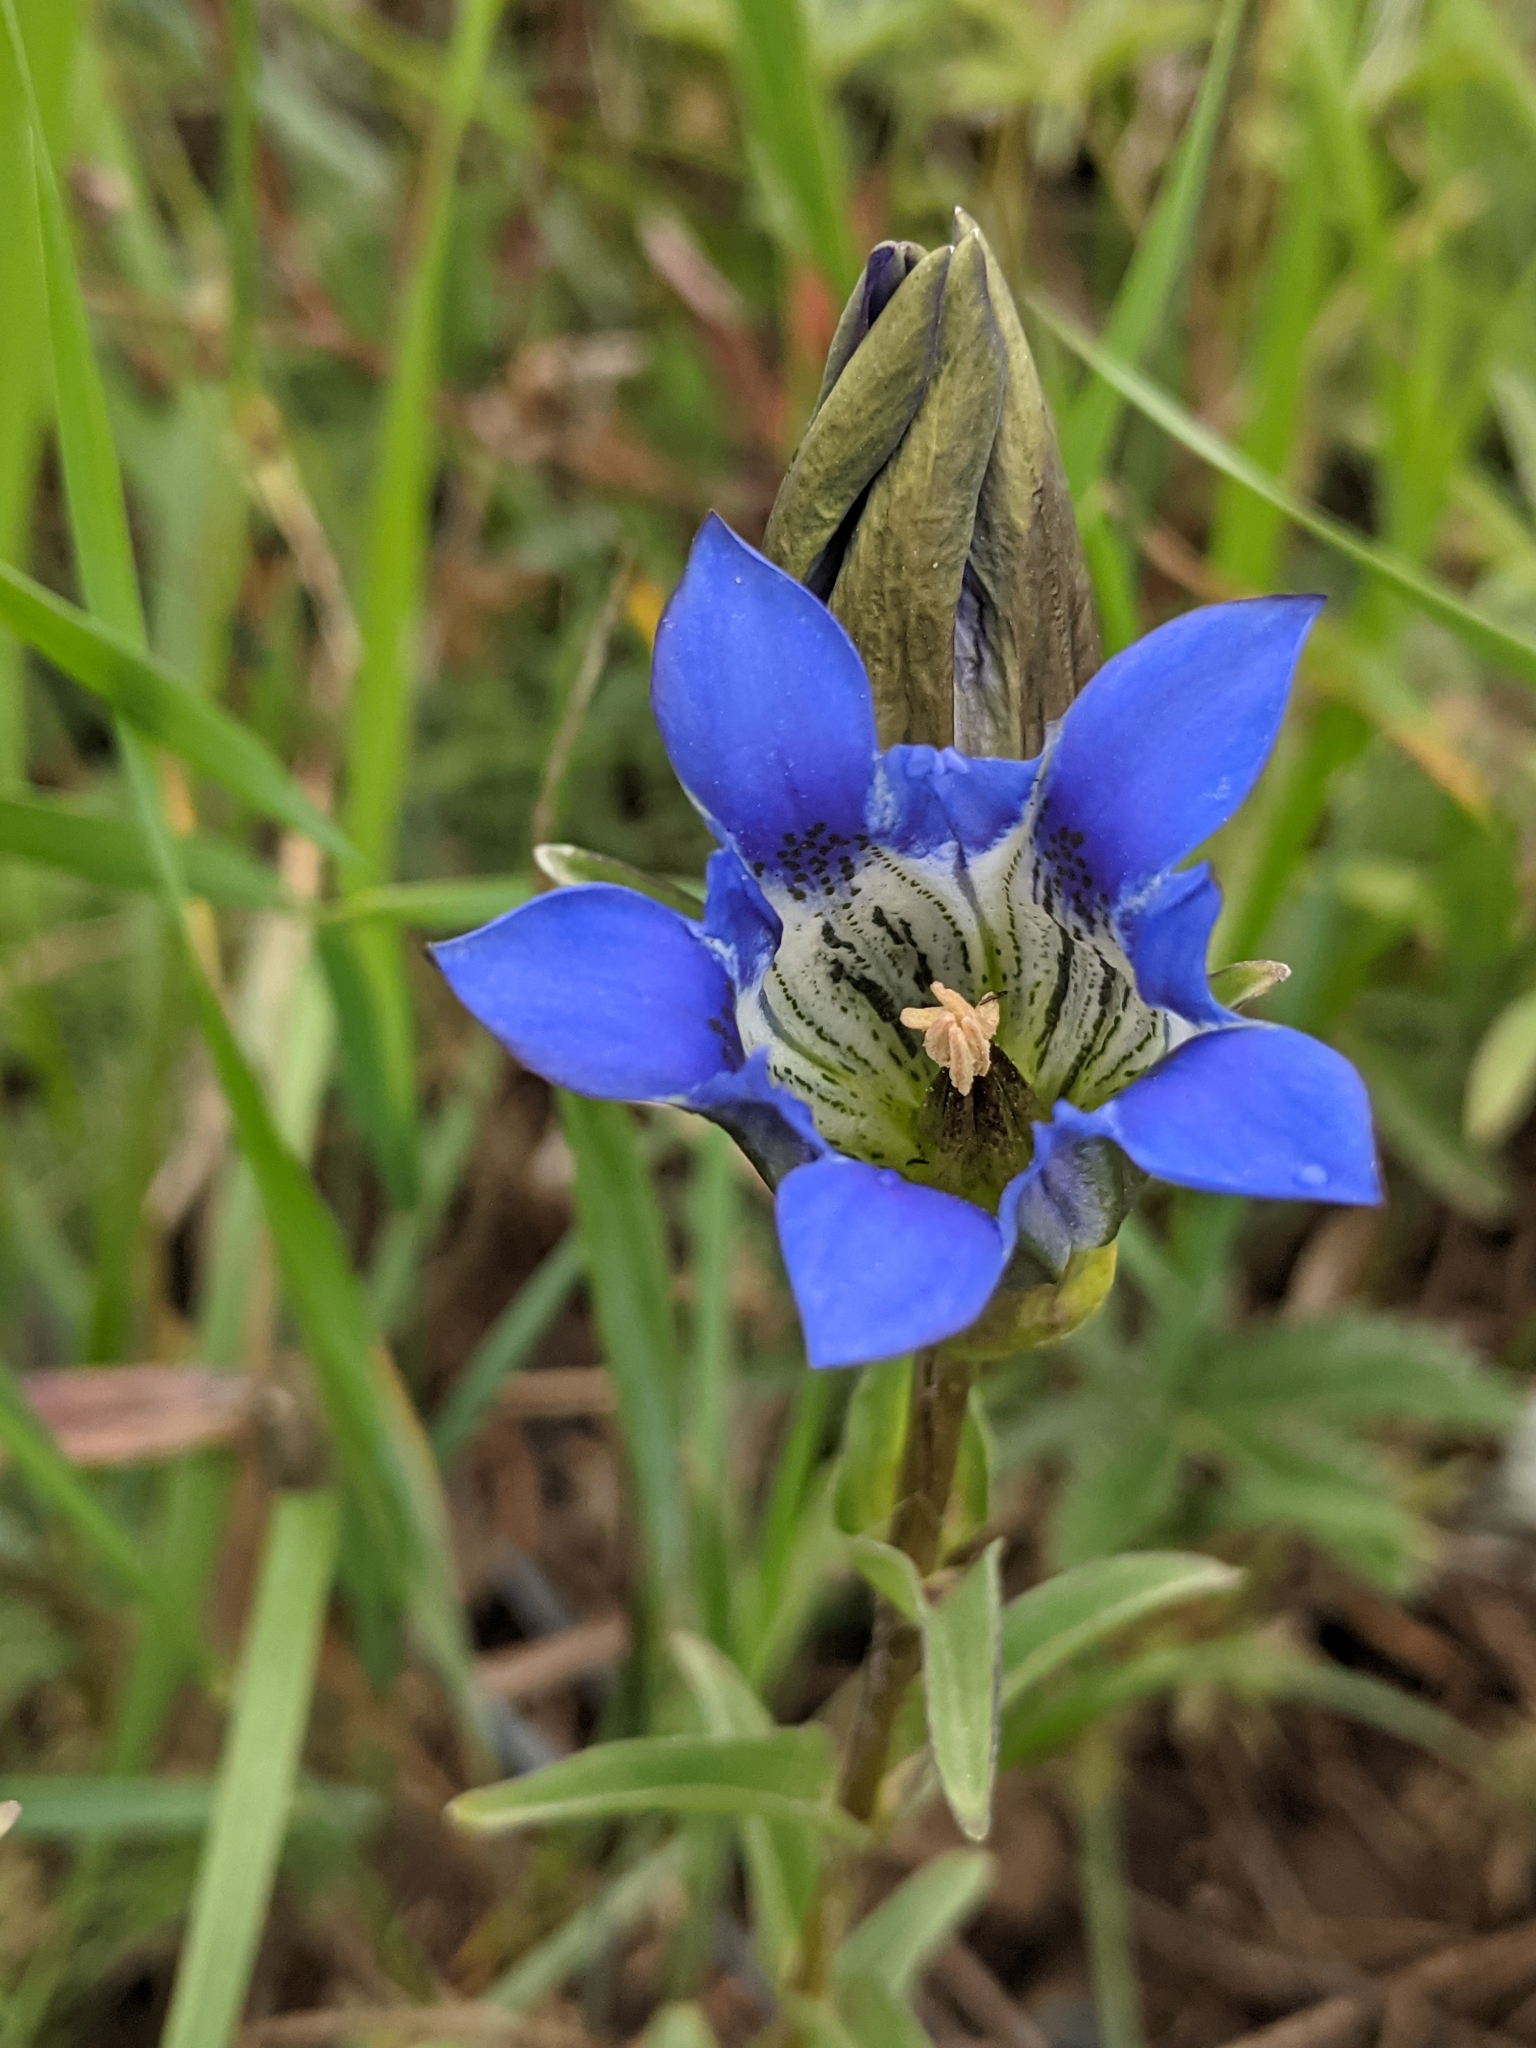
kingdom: Plantae
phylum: Tracheophyta
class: Magnoliopsida
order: Gentianales
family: Gentianaceae
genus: Gentiana
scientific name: Gentiana parryi
